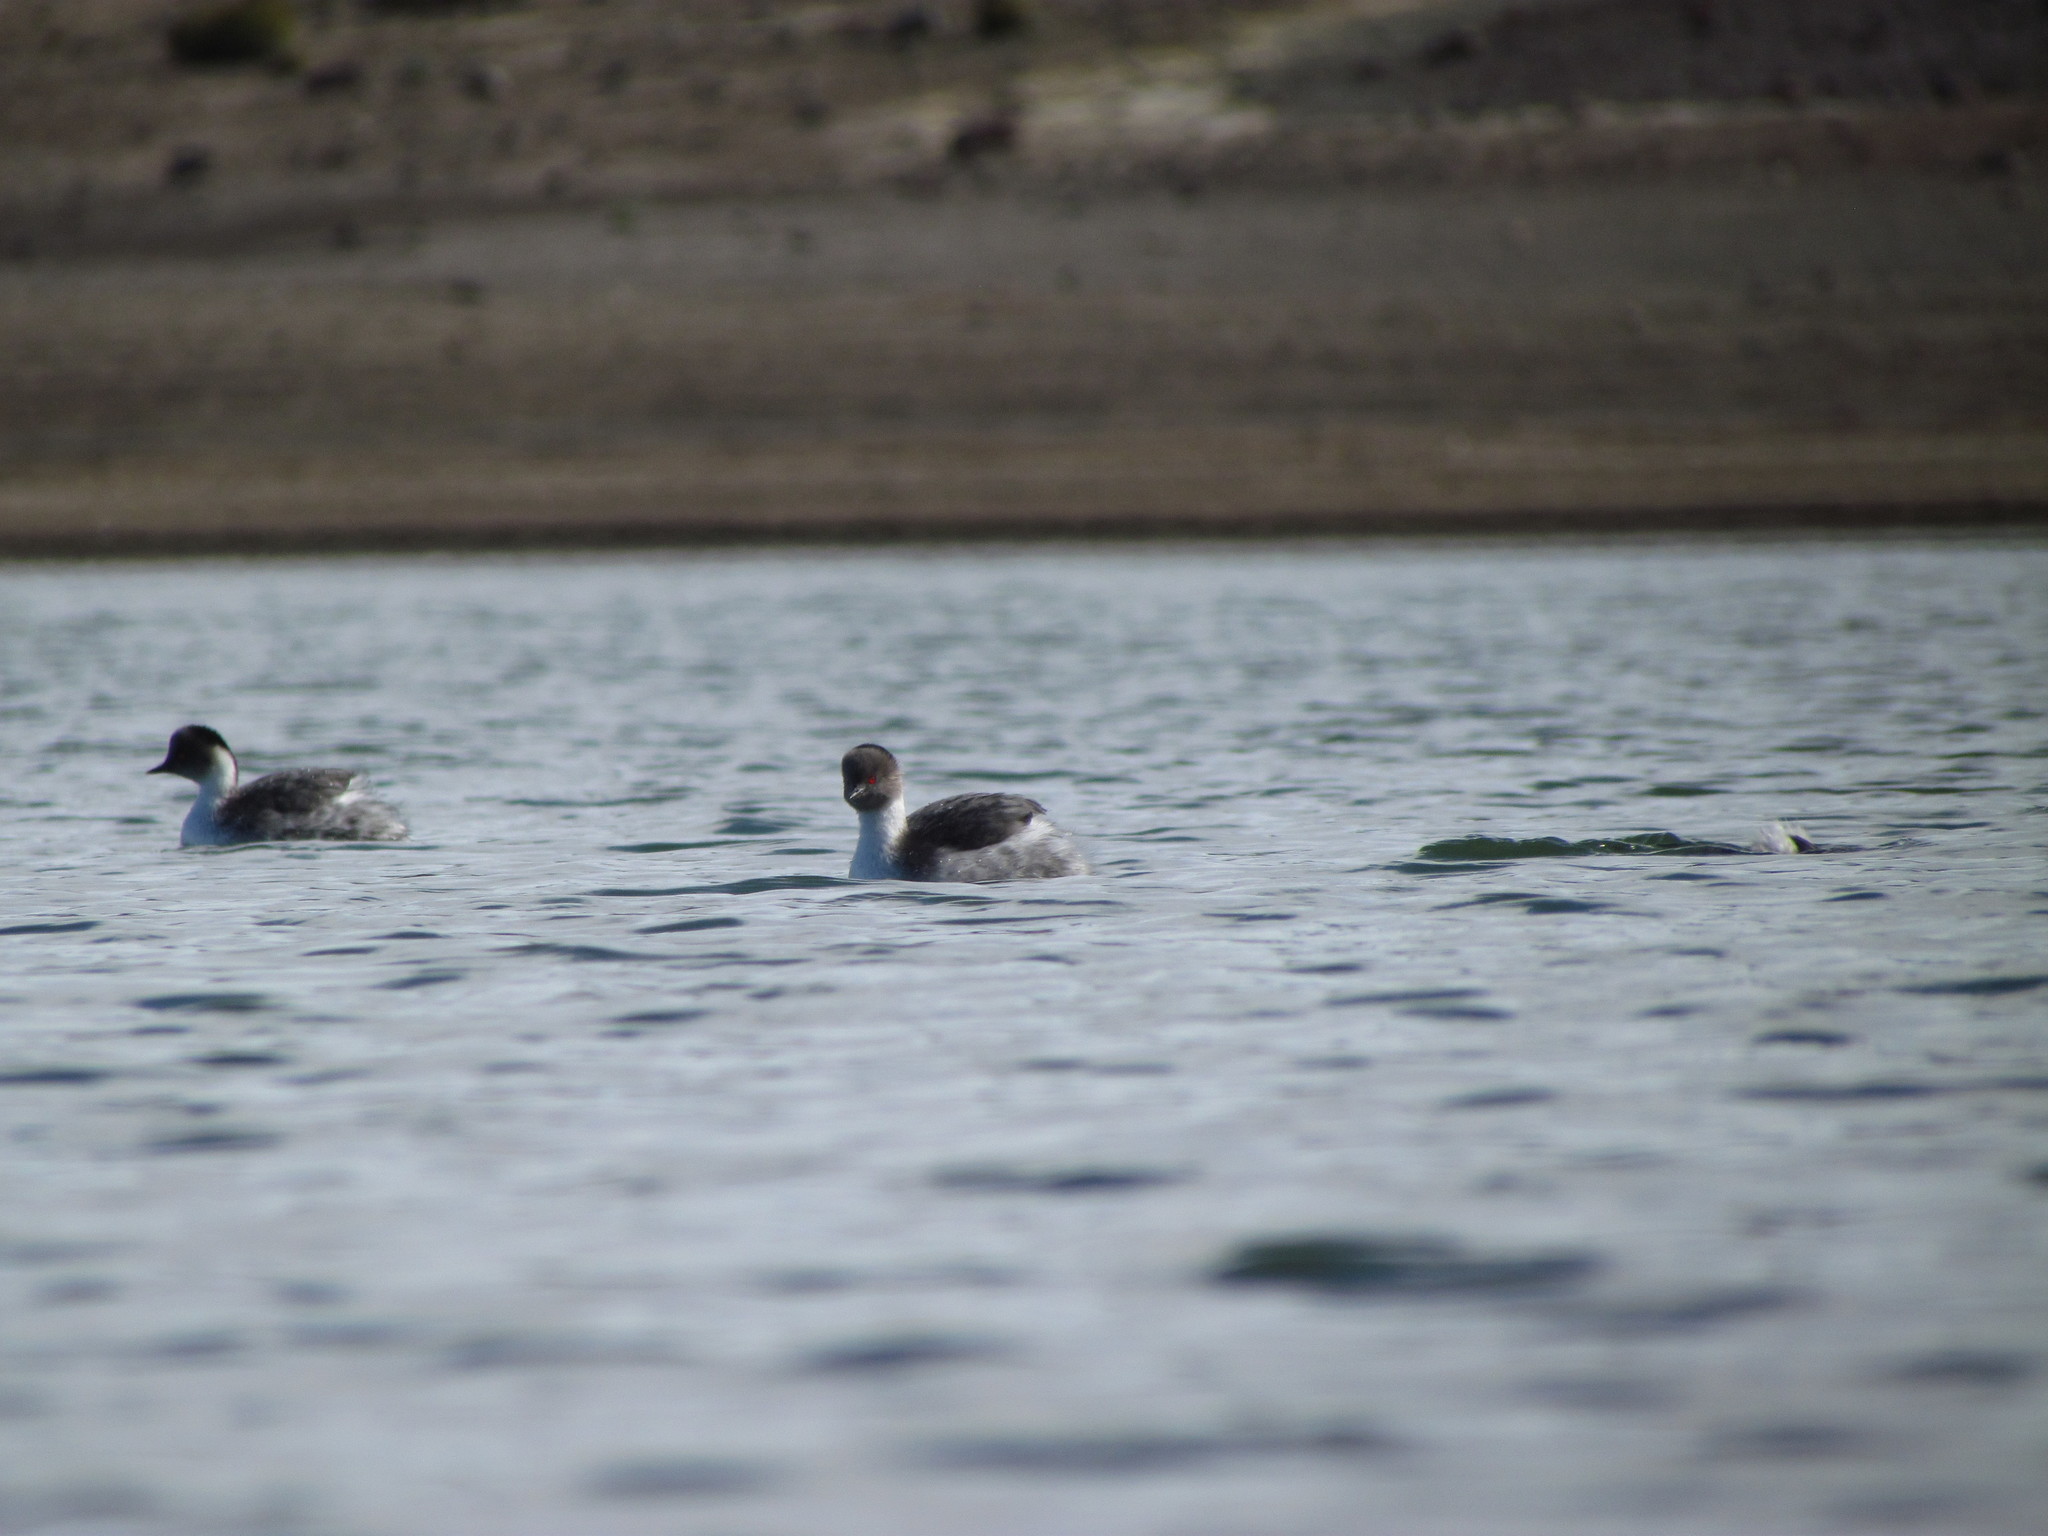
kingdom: Animalia
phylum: Chordata
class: Aves
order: Podicipediformes
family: Podicipedidae
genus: Podiceps
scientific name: Podiceps occipitalis
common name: Silvery grebe
